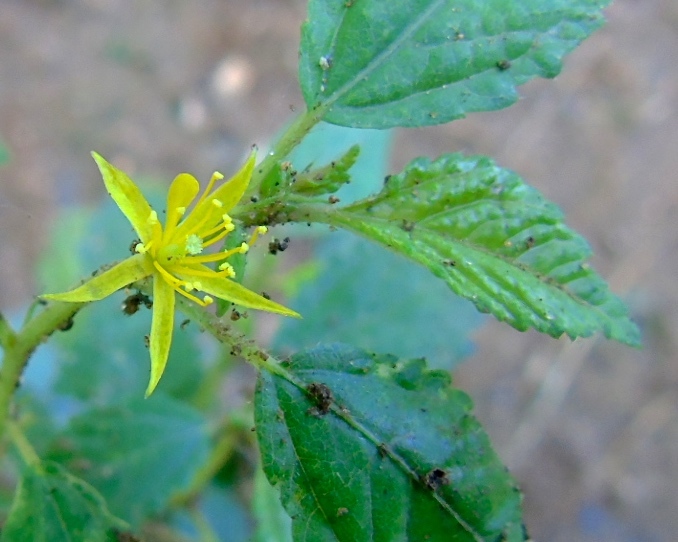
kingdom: Plantae
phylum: Tracheophyta
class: Magnoliopsida
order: Malvales
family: Malvaceae
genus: Corchorus
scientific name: Corchorus aestuans
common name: Jute
